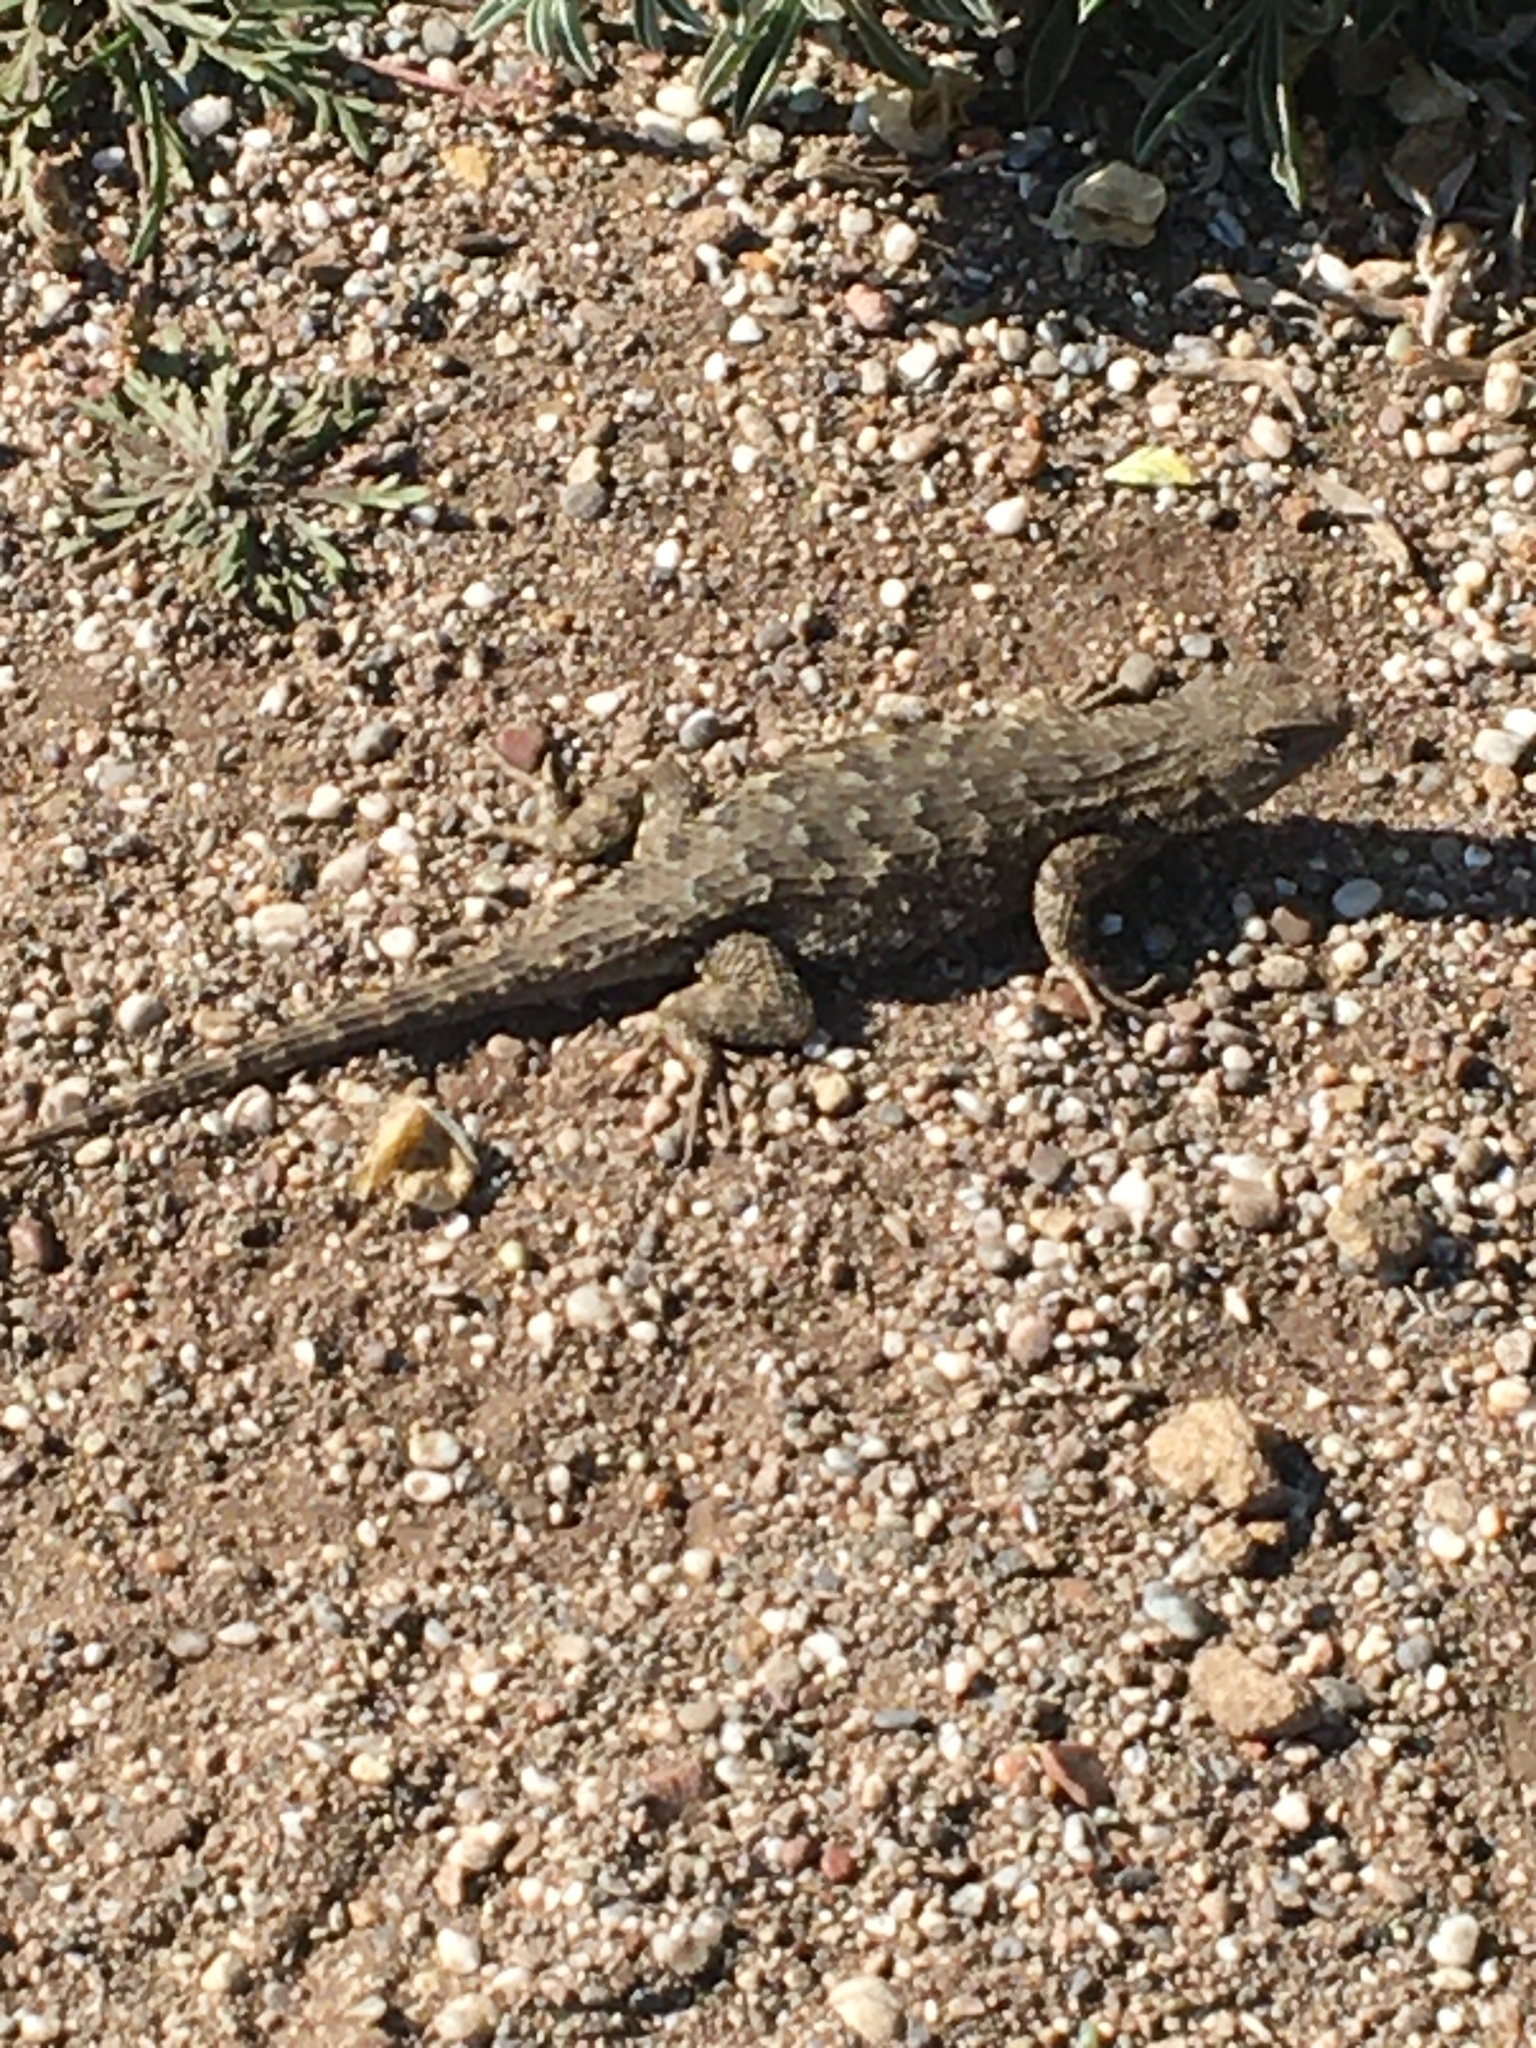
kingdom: Animalia
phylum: Chordata
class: Squamata
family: Phrynosomatidae
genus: Sceloporus
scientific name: Sceloporus occidentalis
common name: Western fence lizard
